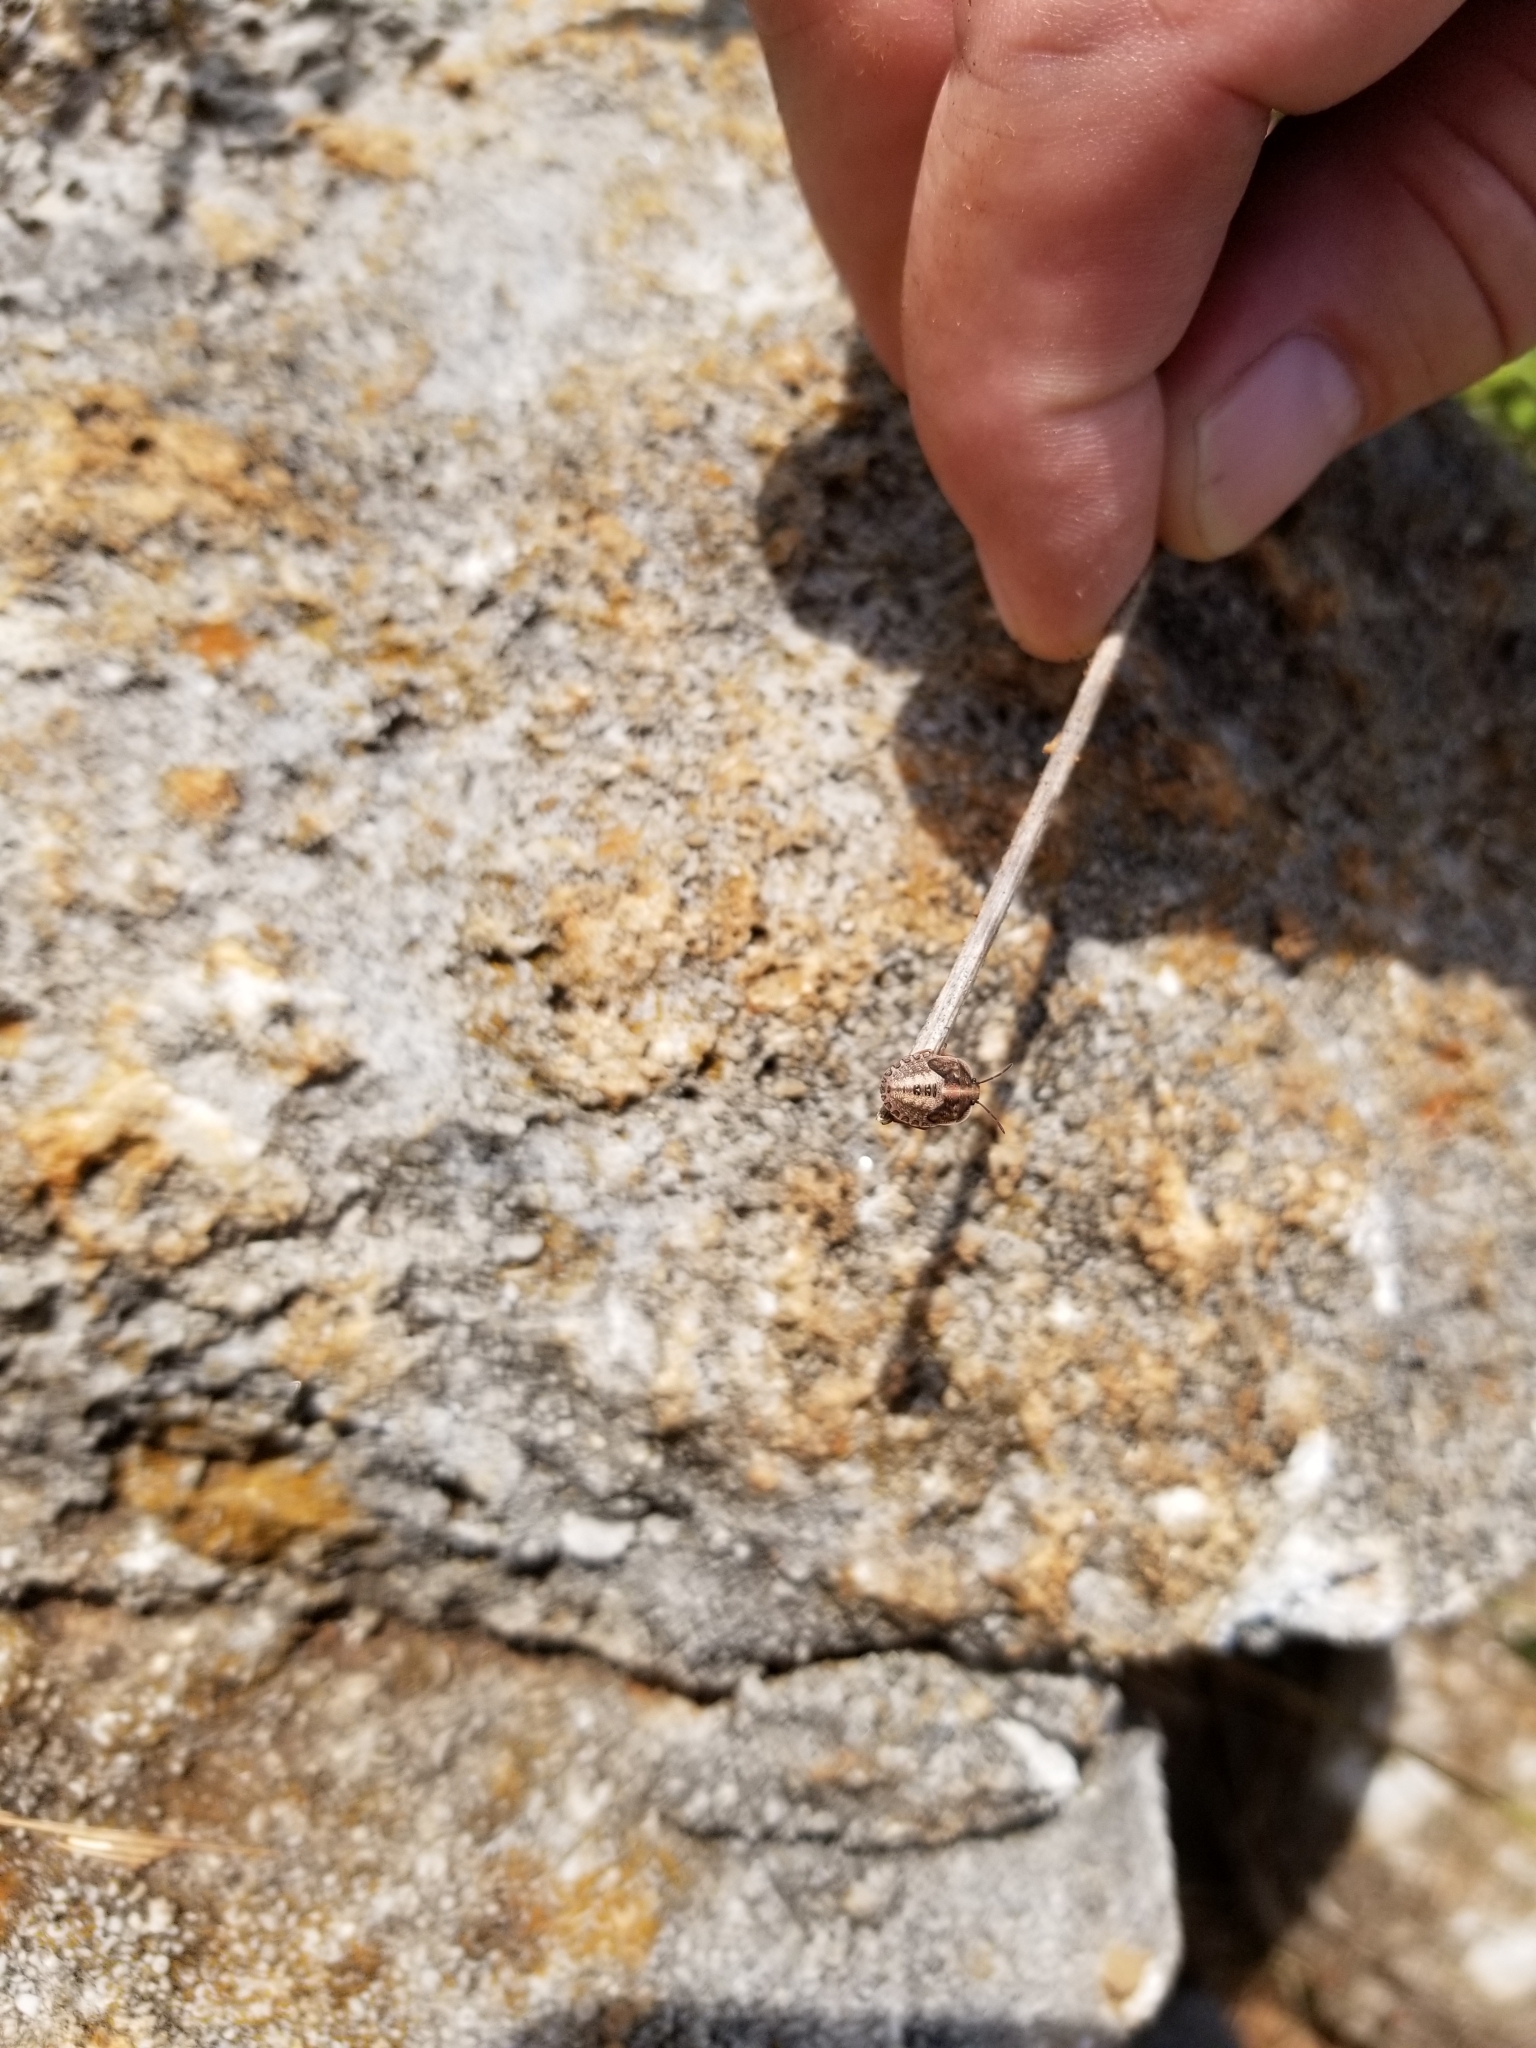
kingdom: Animalia
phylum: Arthropoda
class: Insecta
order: Hemiptera
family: Pentatomidae
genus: Hymenarcys
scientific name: Hymenarcys nervosa
